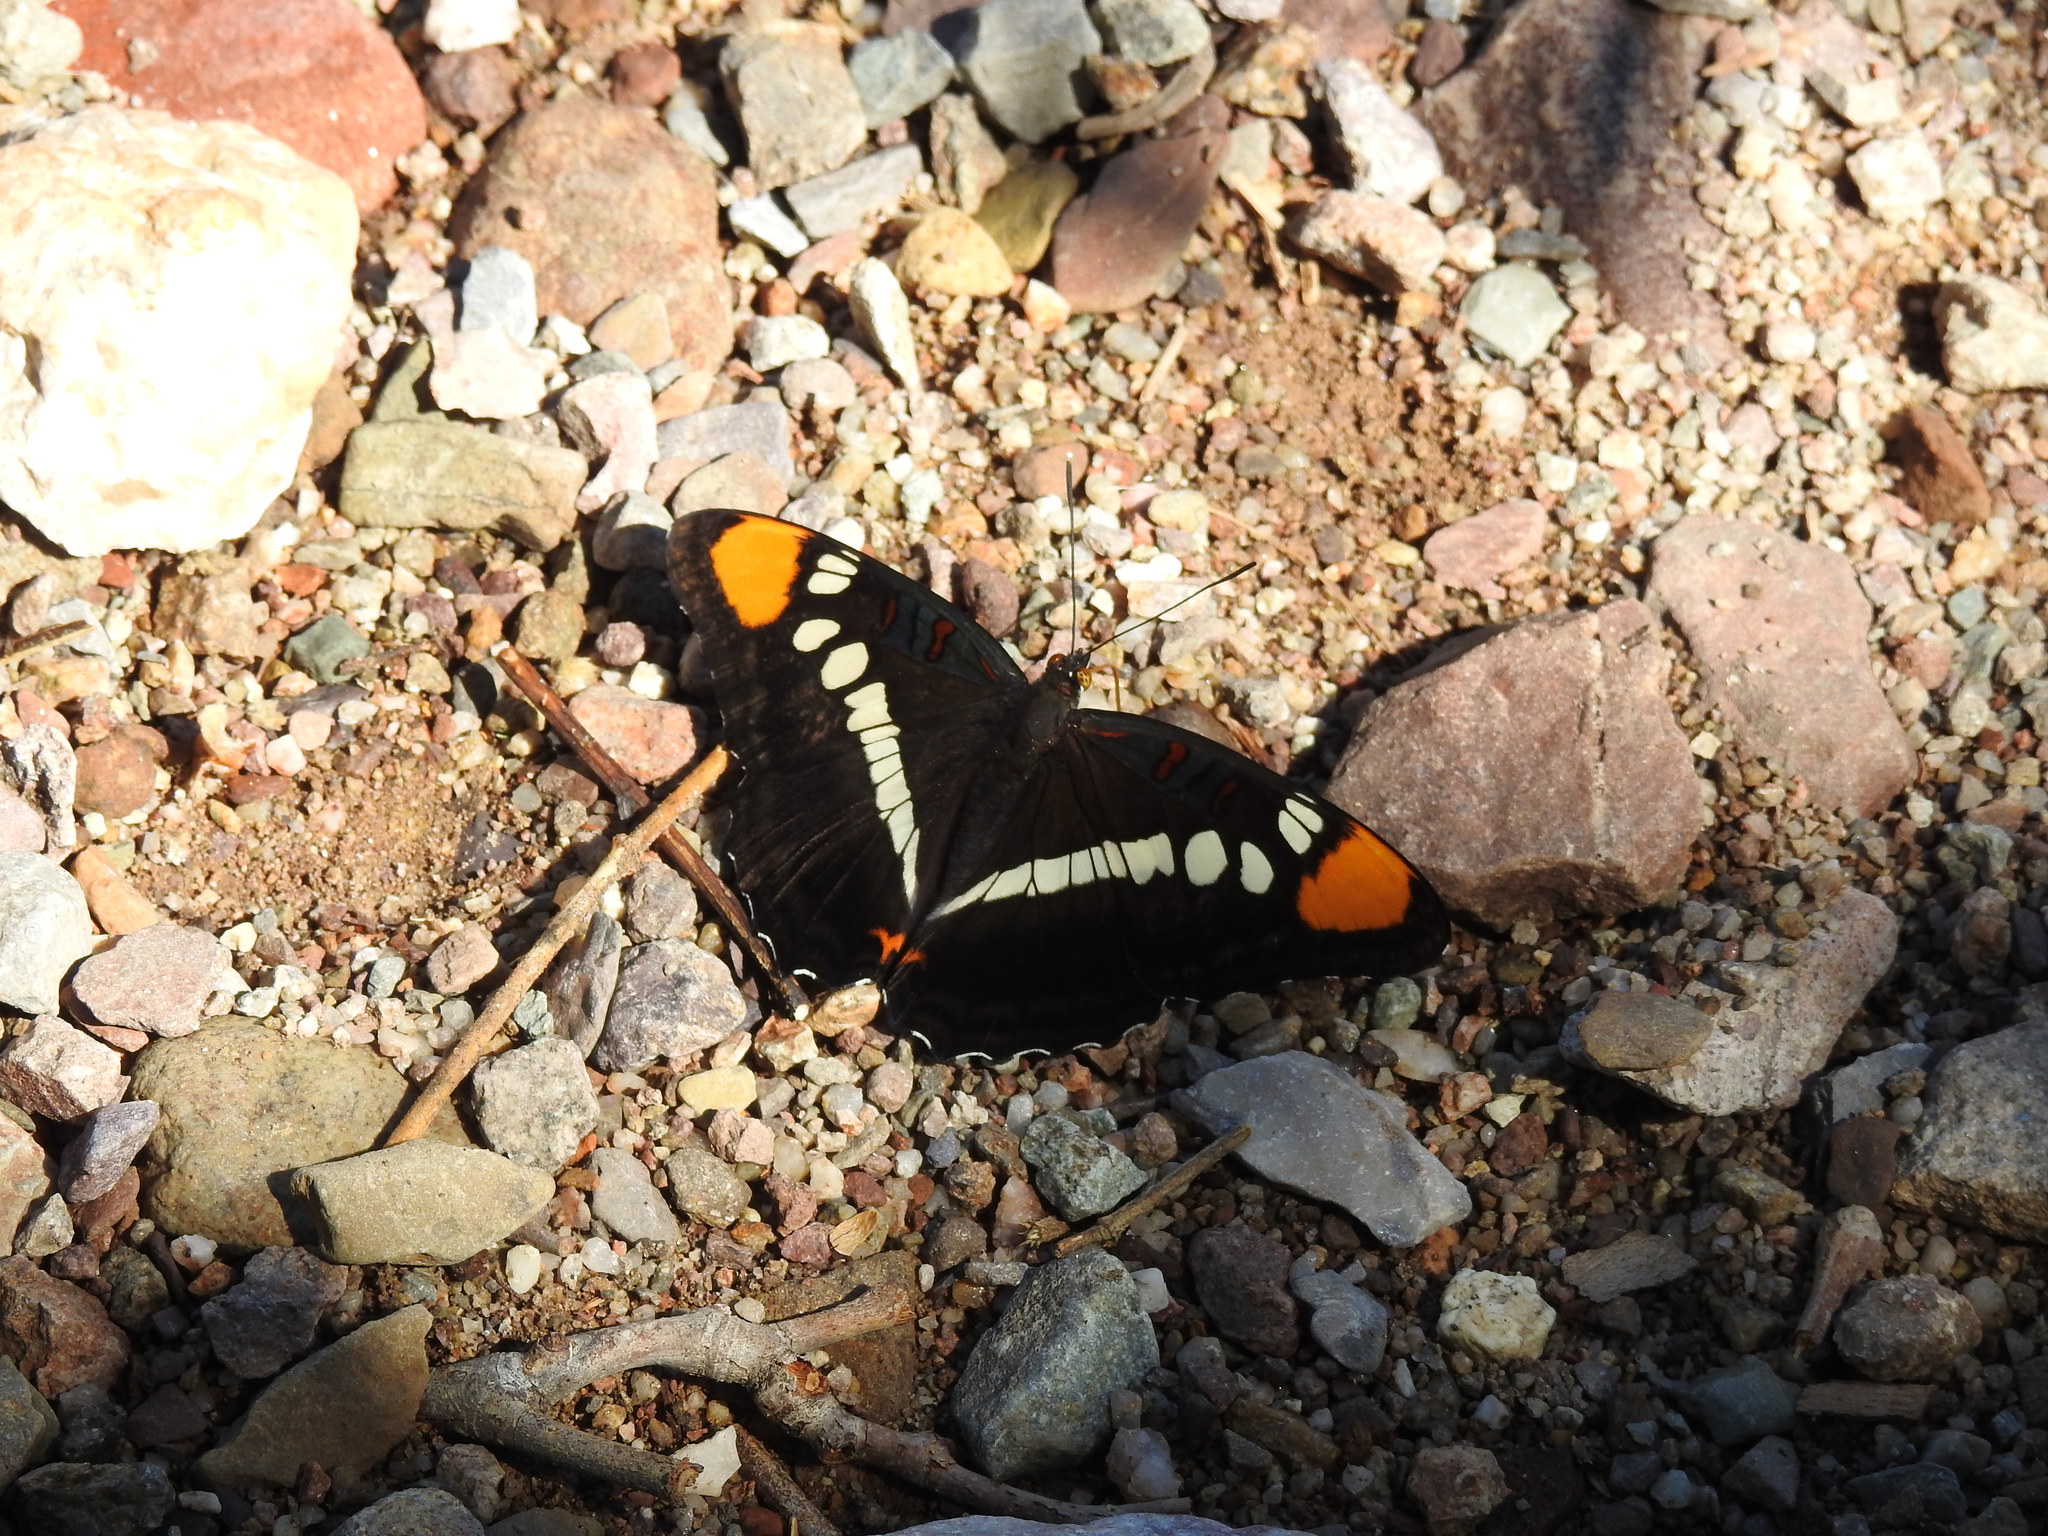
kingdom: Animalia
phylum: Arthropoda
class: Insecta
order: Lepidoptera
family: Nymphalidae
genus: Limenitis
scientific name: Limenitis bredowii
